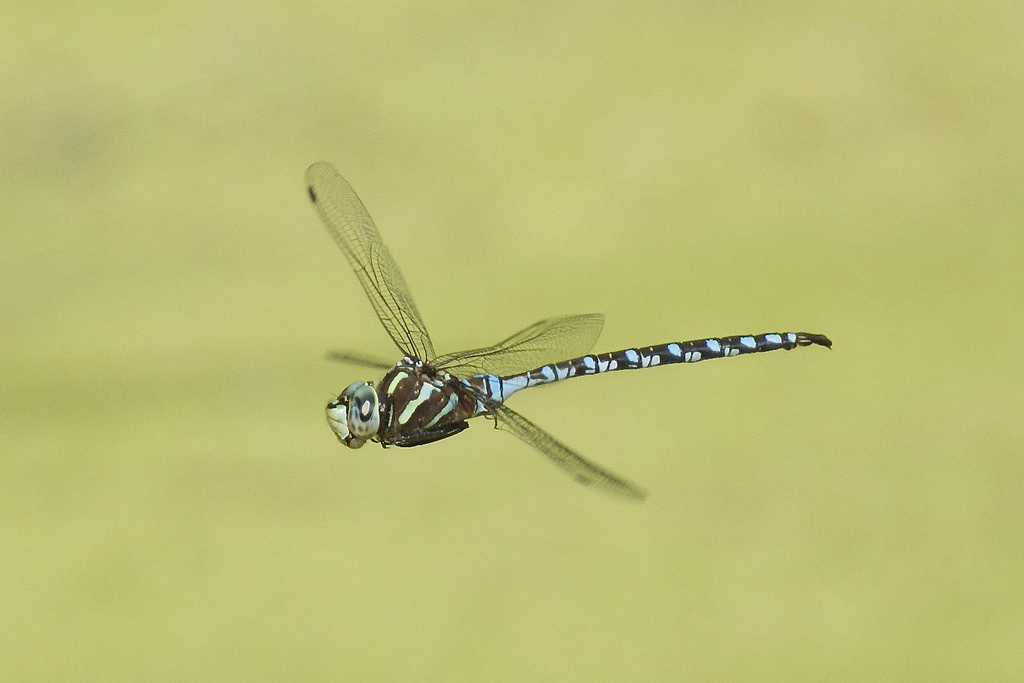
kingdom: Animalia
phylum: Arthropoda
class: Insecta
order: Odonata
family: Aeshnidae
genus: Aeshna
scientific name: Aeshna constricta
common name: Lance-tipped darner
